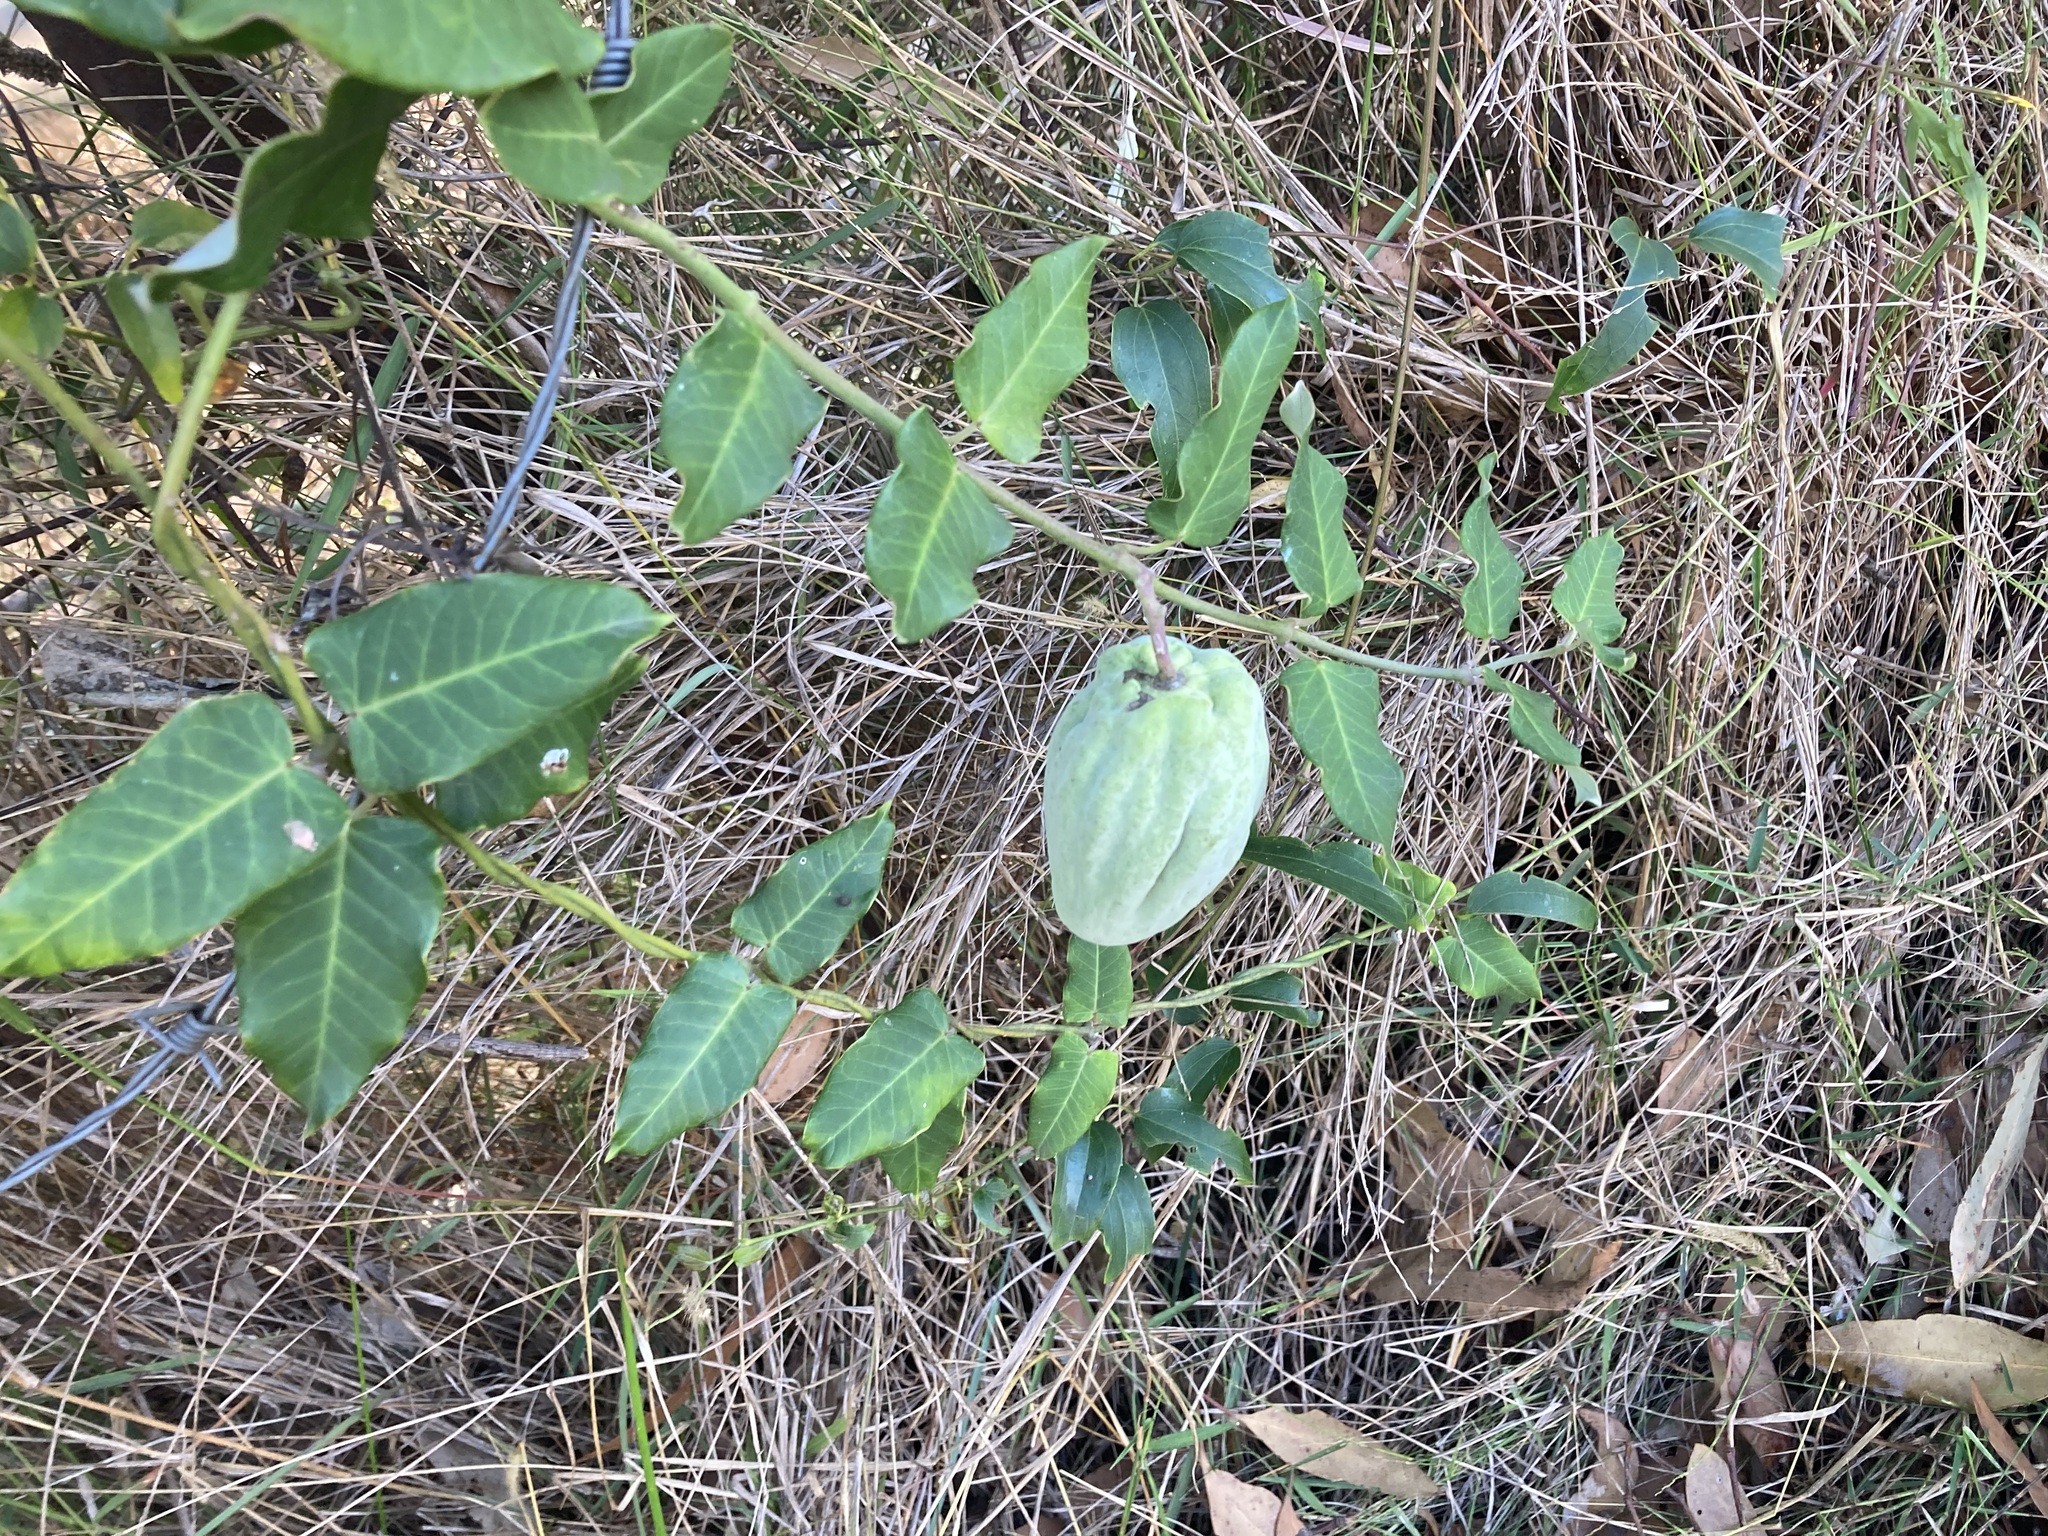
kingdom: Plantae
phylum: Tracheophyta
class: Magnoliopsida
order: Gentianales
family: Apocynaceae
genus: Araujia
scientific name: Araujia sericifera
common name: White bladderflower
